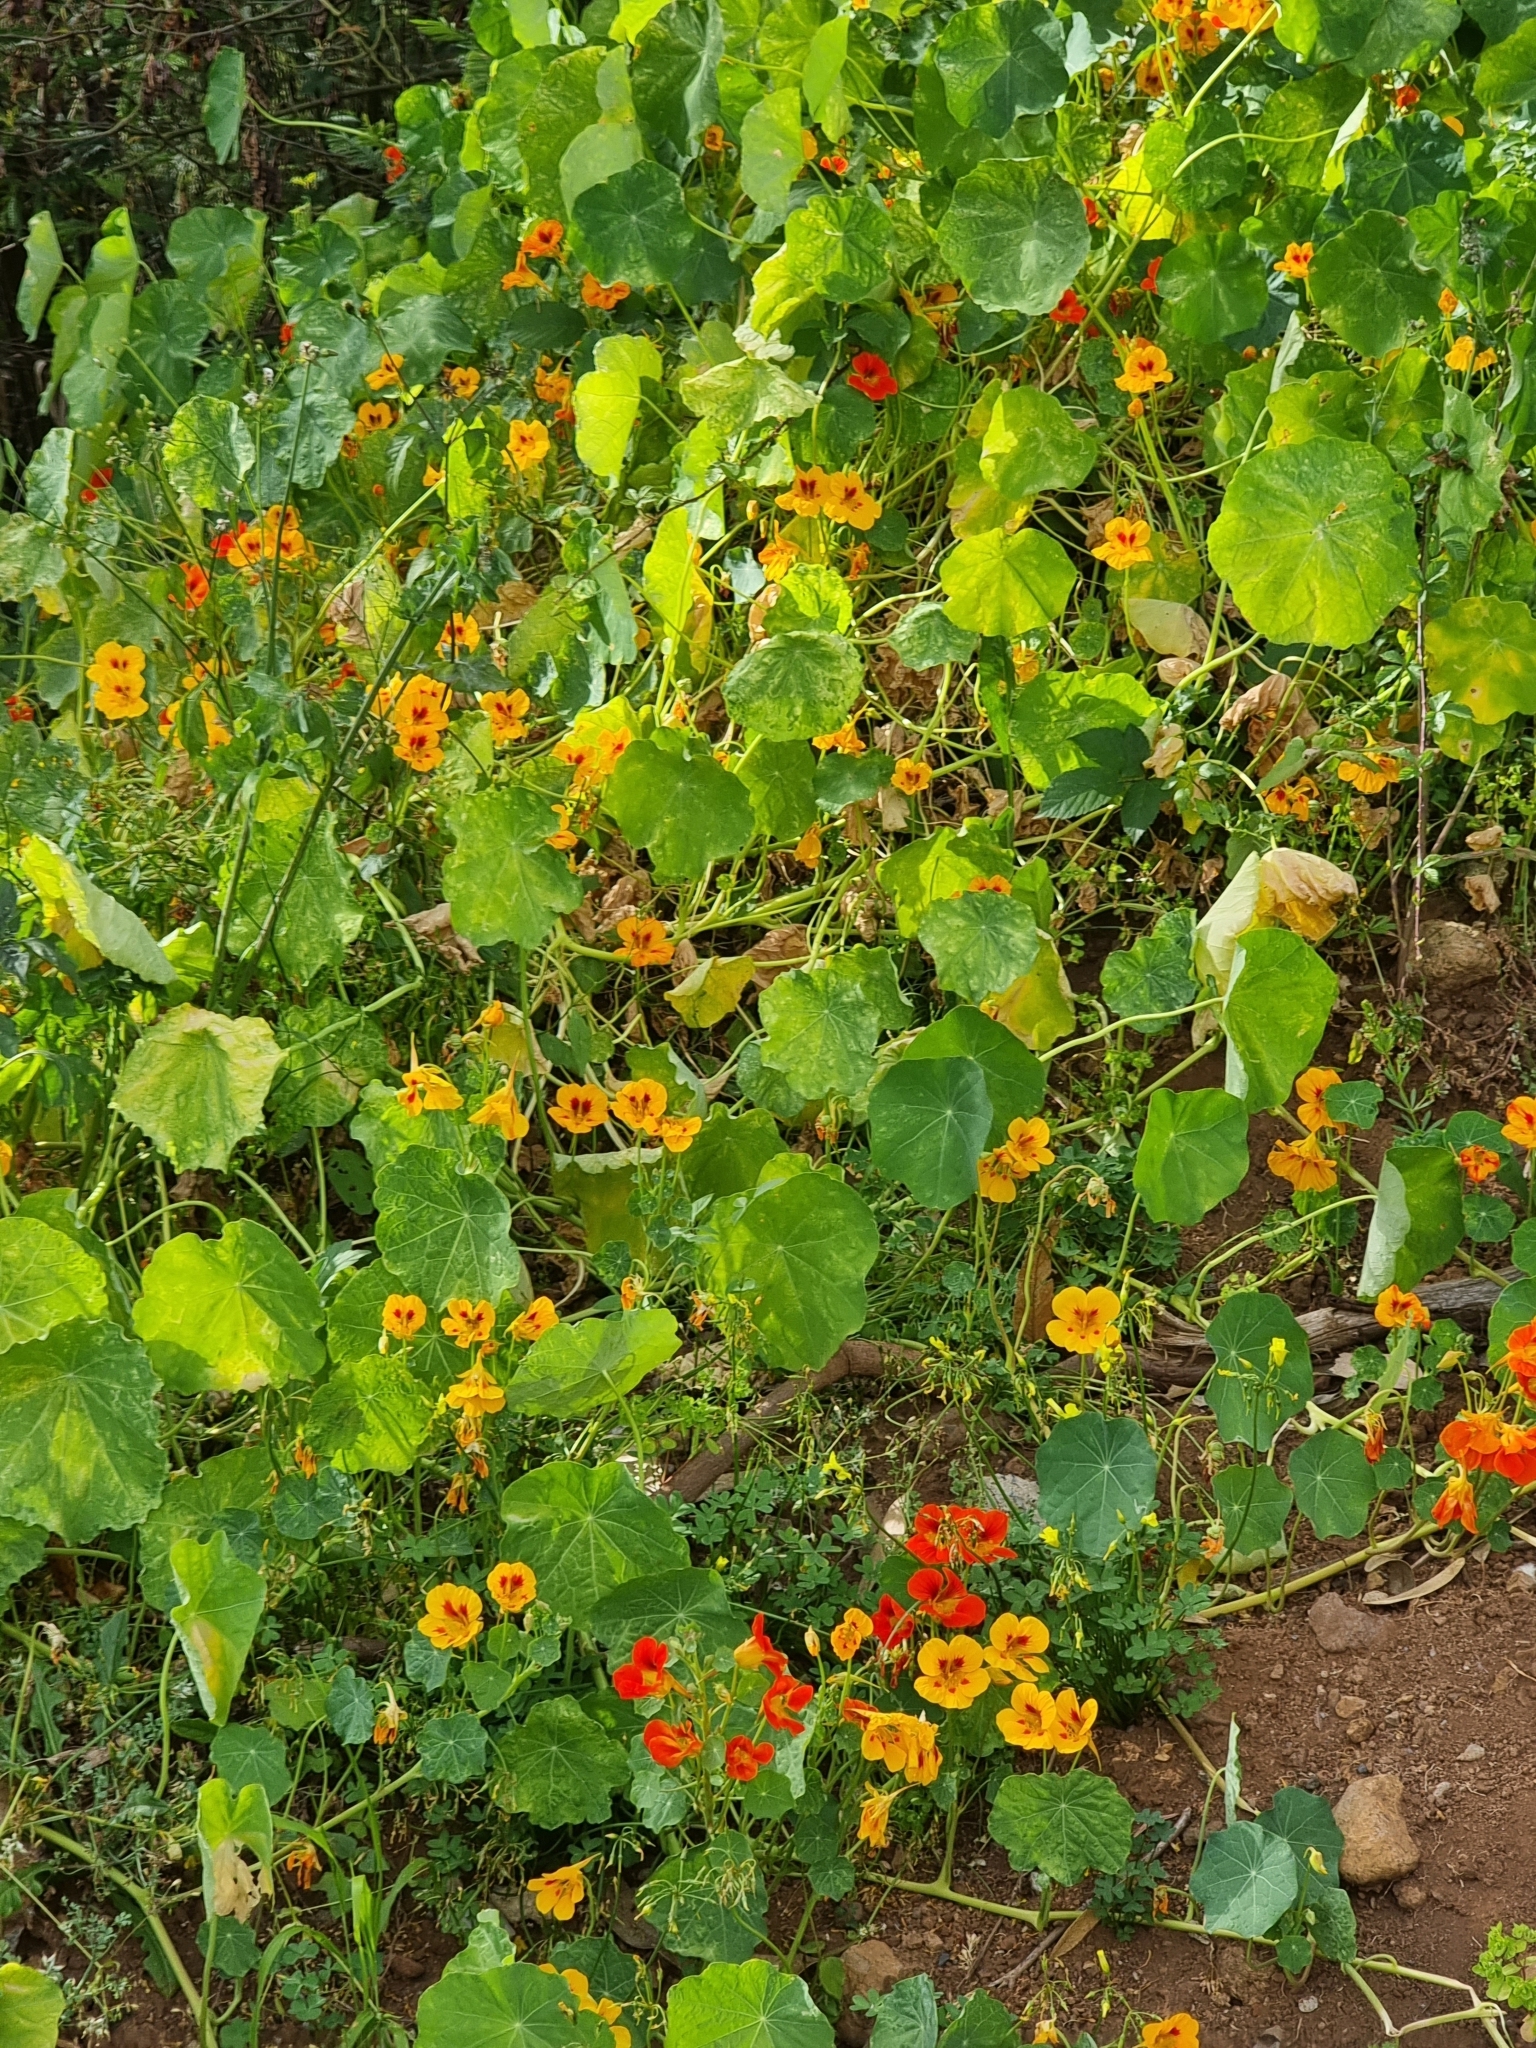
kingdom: Plantae
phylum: Tracheophyta
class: Magnoliopsida
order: Brassicales
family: Tropaeolaceae
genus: Tropaeolum
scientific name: Tropaeolum majus
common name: Nasturtium
